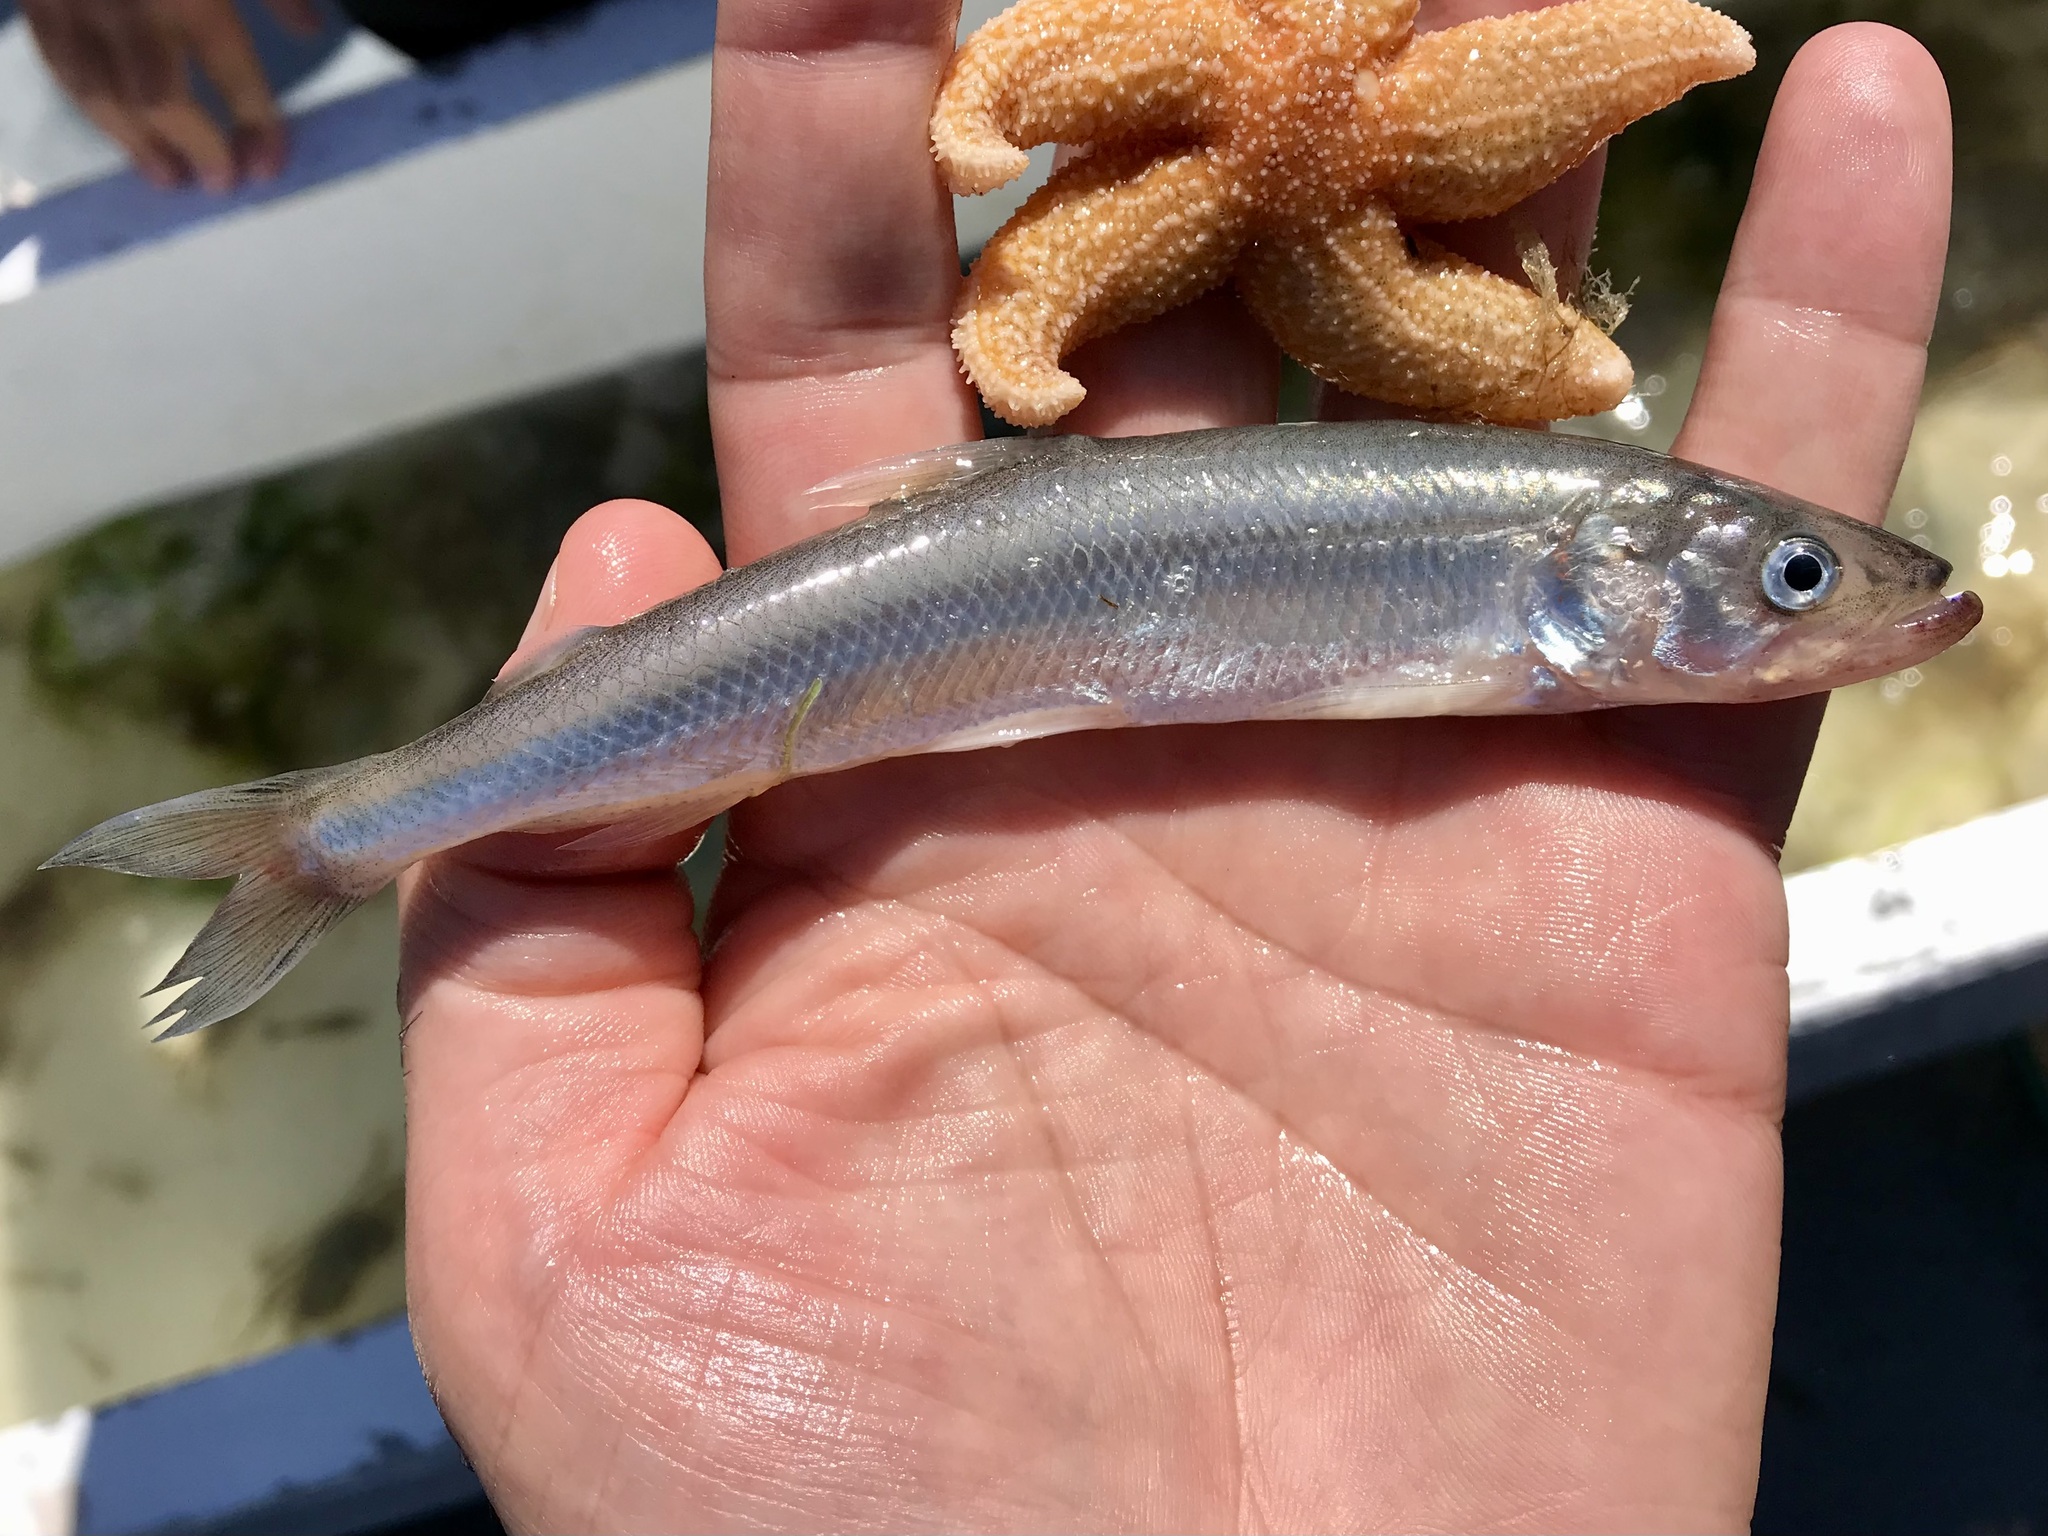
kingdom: Animalia
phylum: Chordata
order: Osmeriformes
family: Osmeridae
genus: Osmerus
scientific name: Osmerus eperlanus
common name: Smelt
